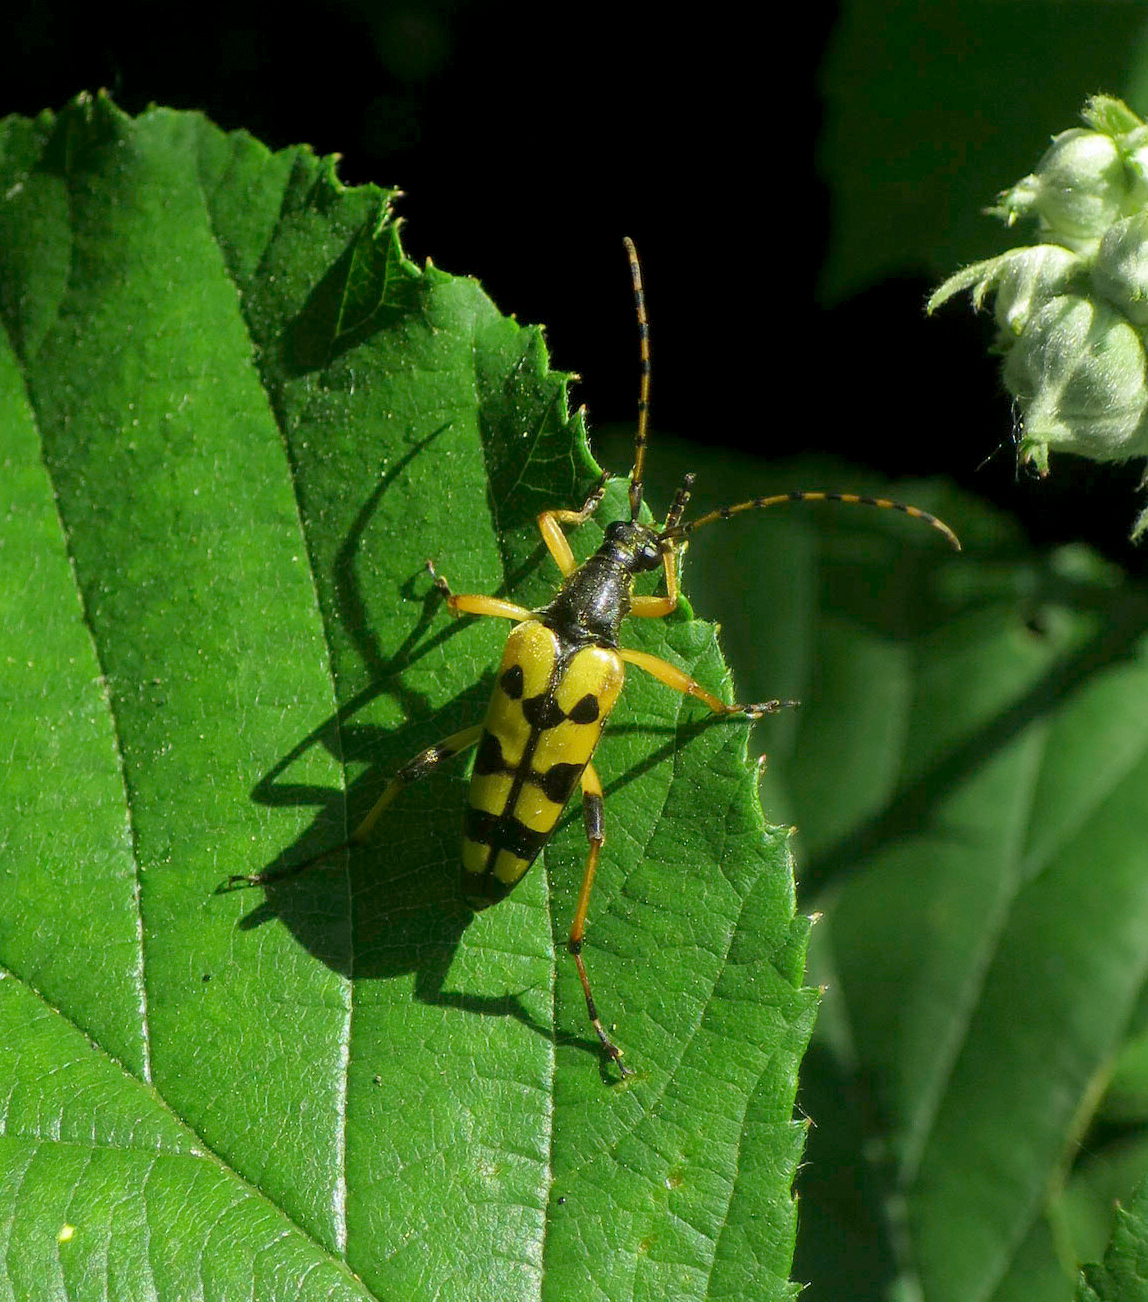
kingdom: Animalia
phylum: Arthropoda
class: Insecta
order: Coleoptera
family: Cerambycidae
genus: Rutpela
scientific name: Rutpela maculata
